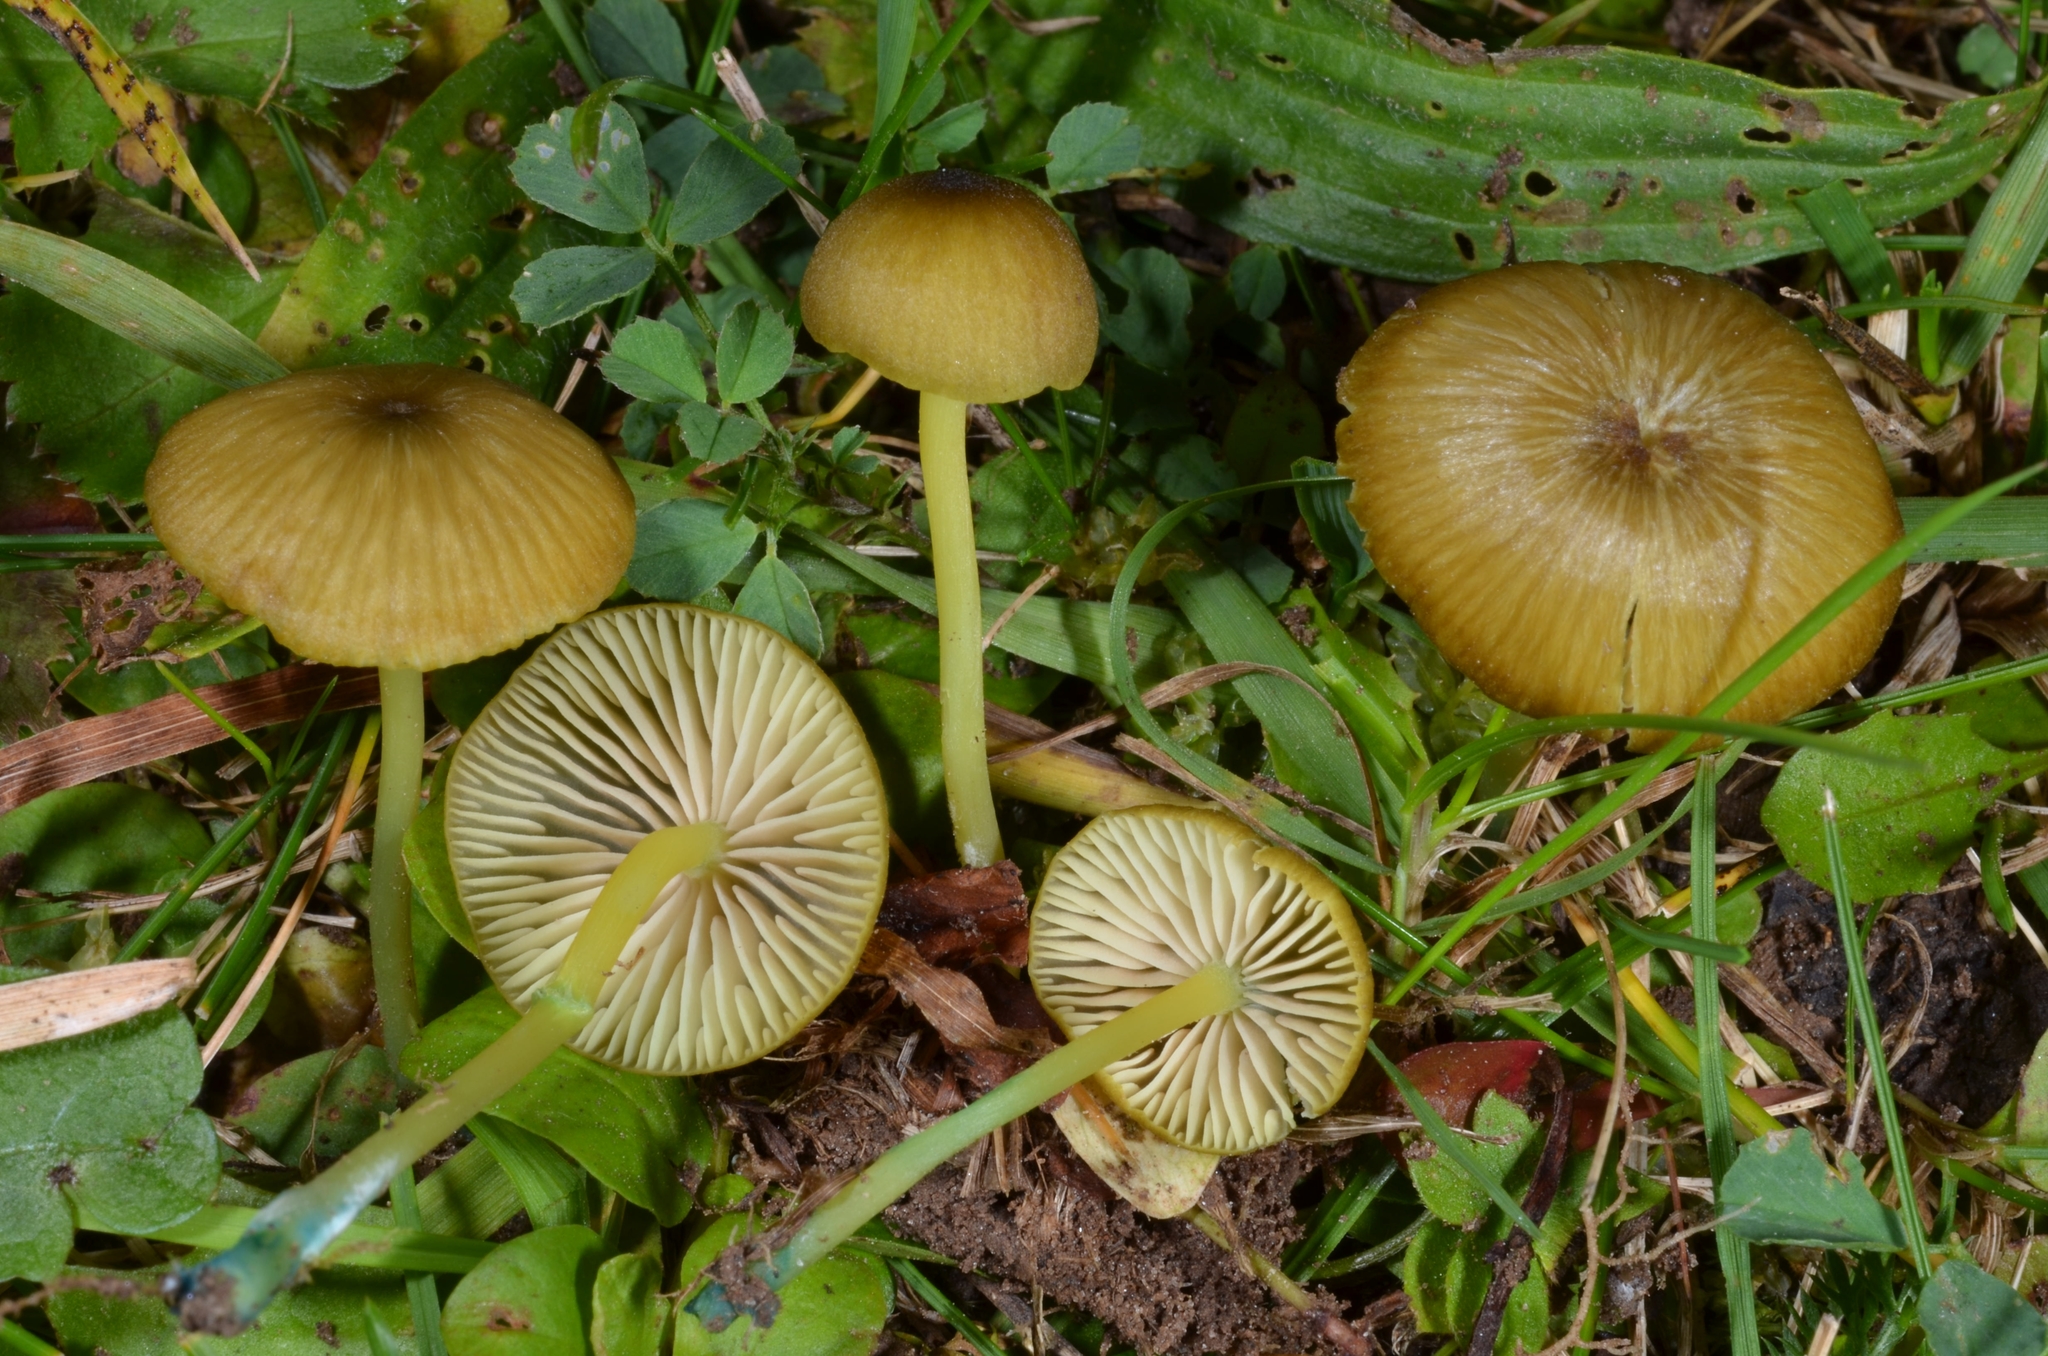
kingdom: Fungi
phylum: Basidiomycota
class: Agaricomycetes
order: Agaricales
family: Entolomataceae
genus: Entoloma
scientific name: Entoloma incanum
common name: Mousepee pinkgill
